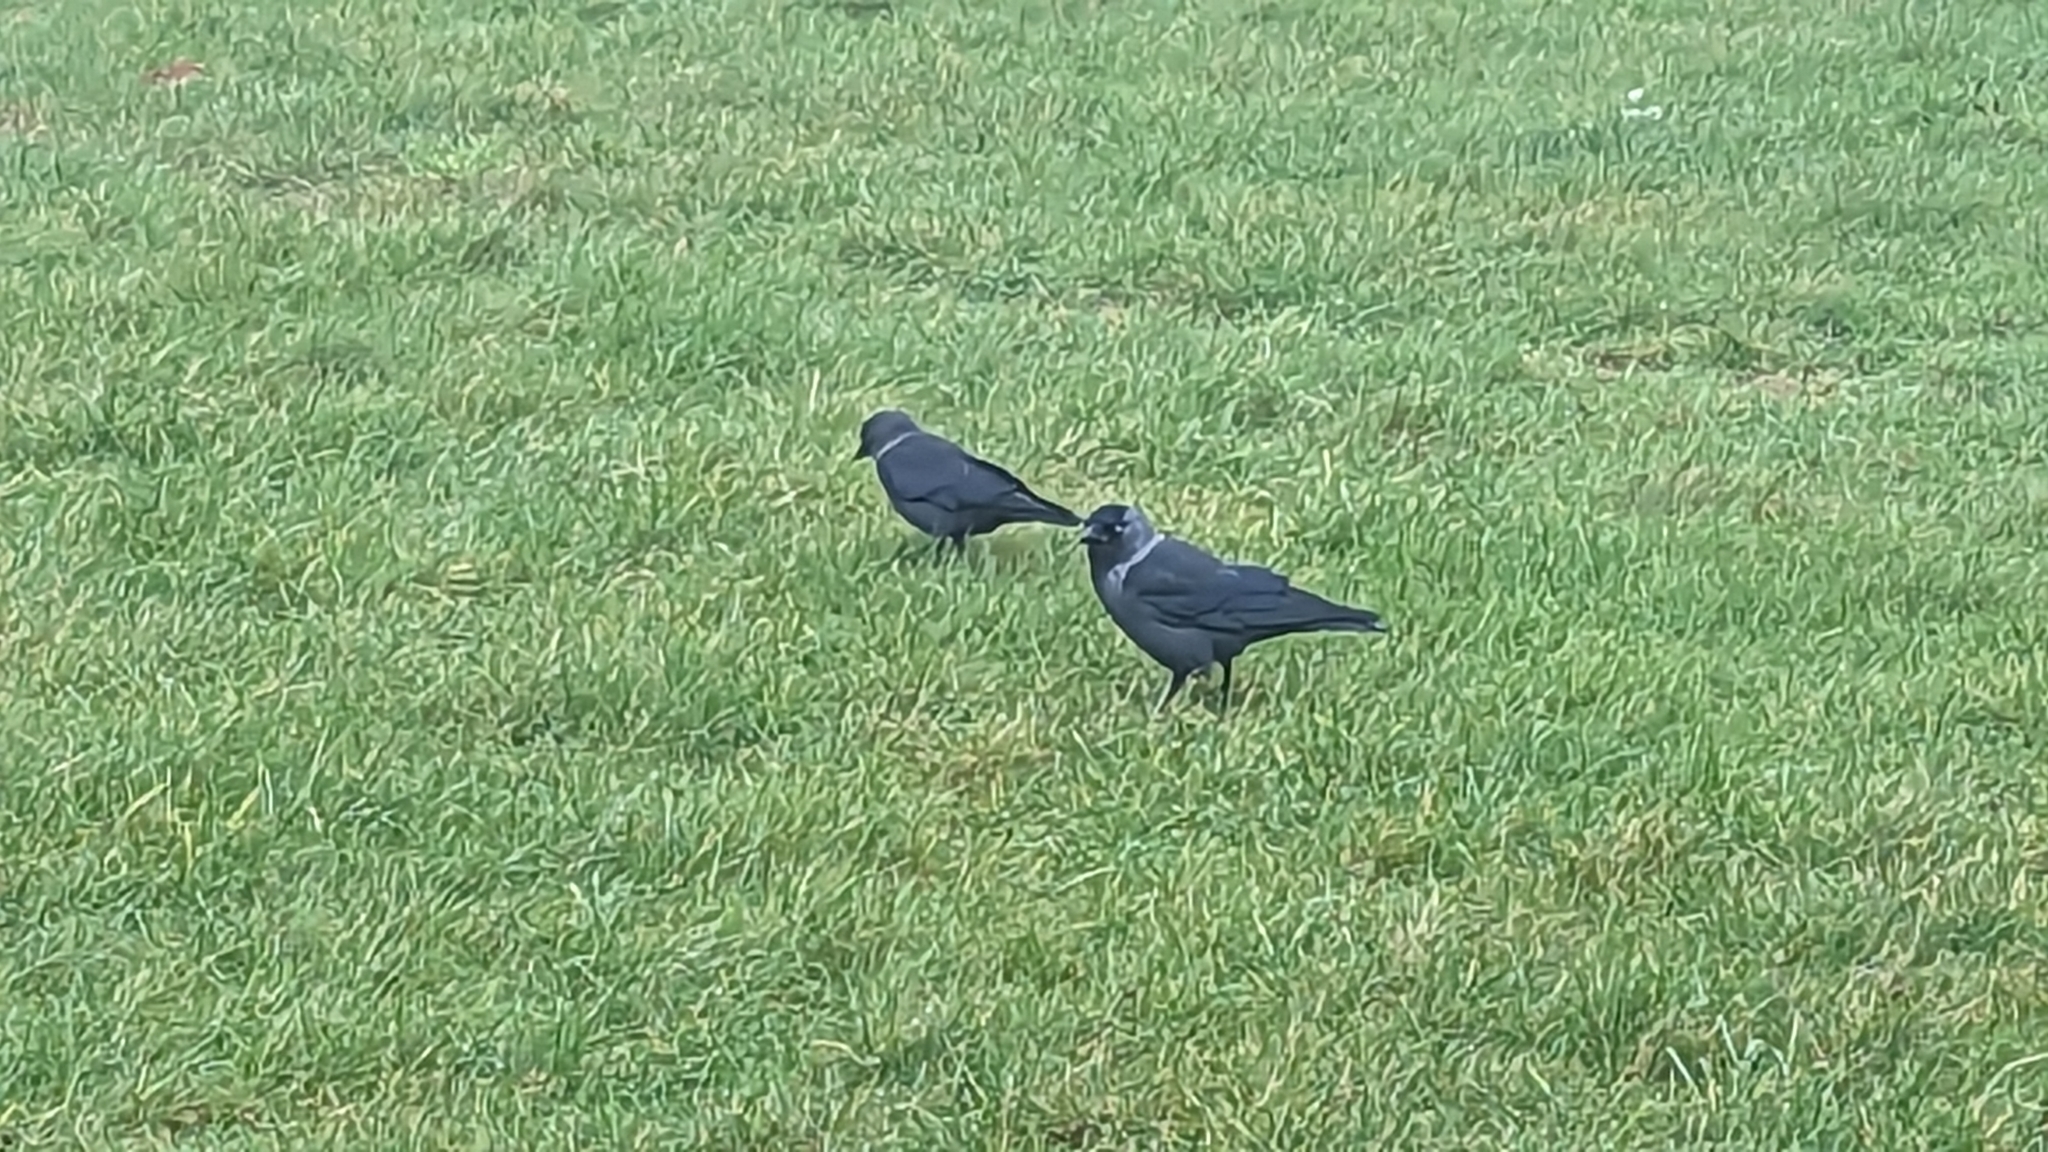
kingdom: Animalia
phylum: Chordata
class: Aves
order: Passeriformes
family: Corvidae
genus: Coloeus
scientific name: Coloeus monedula
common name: Western jackdaw
